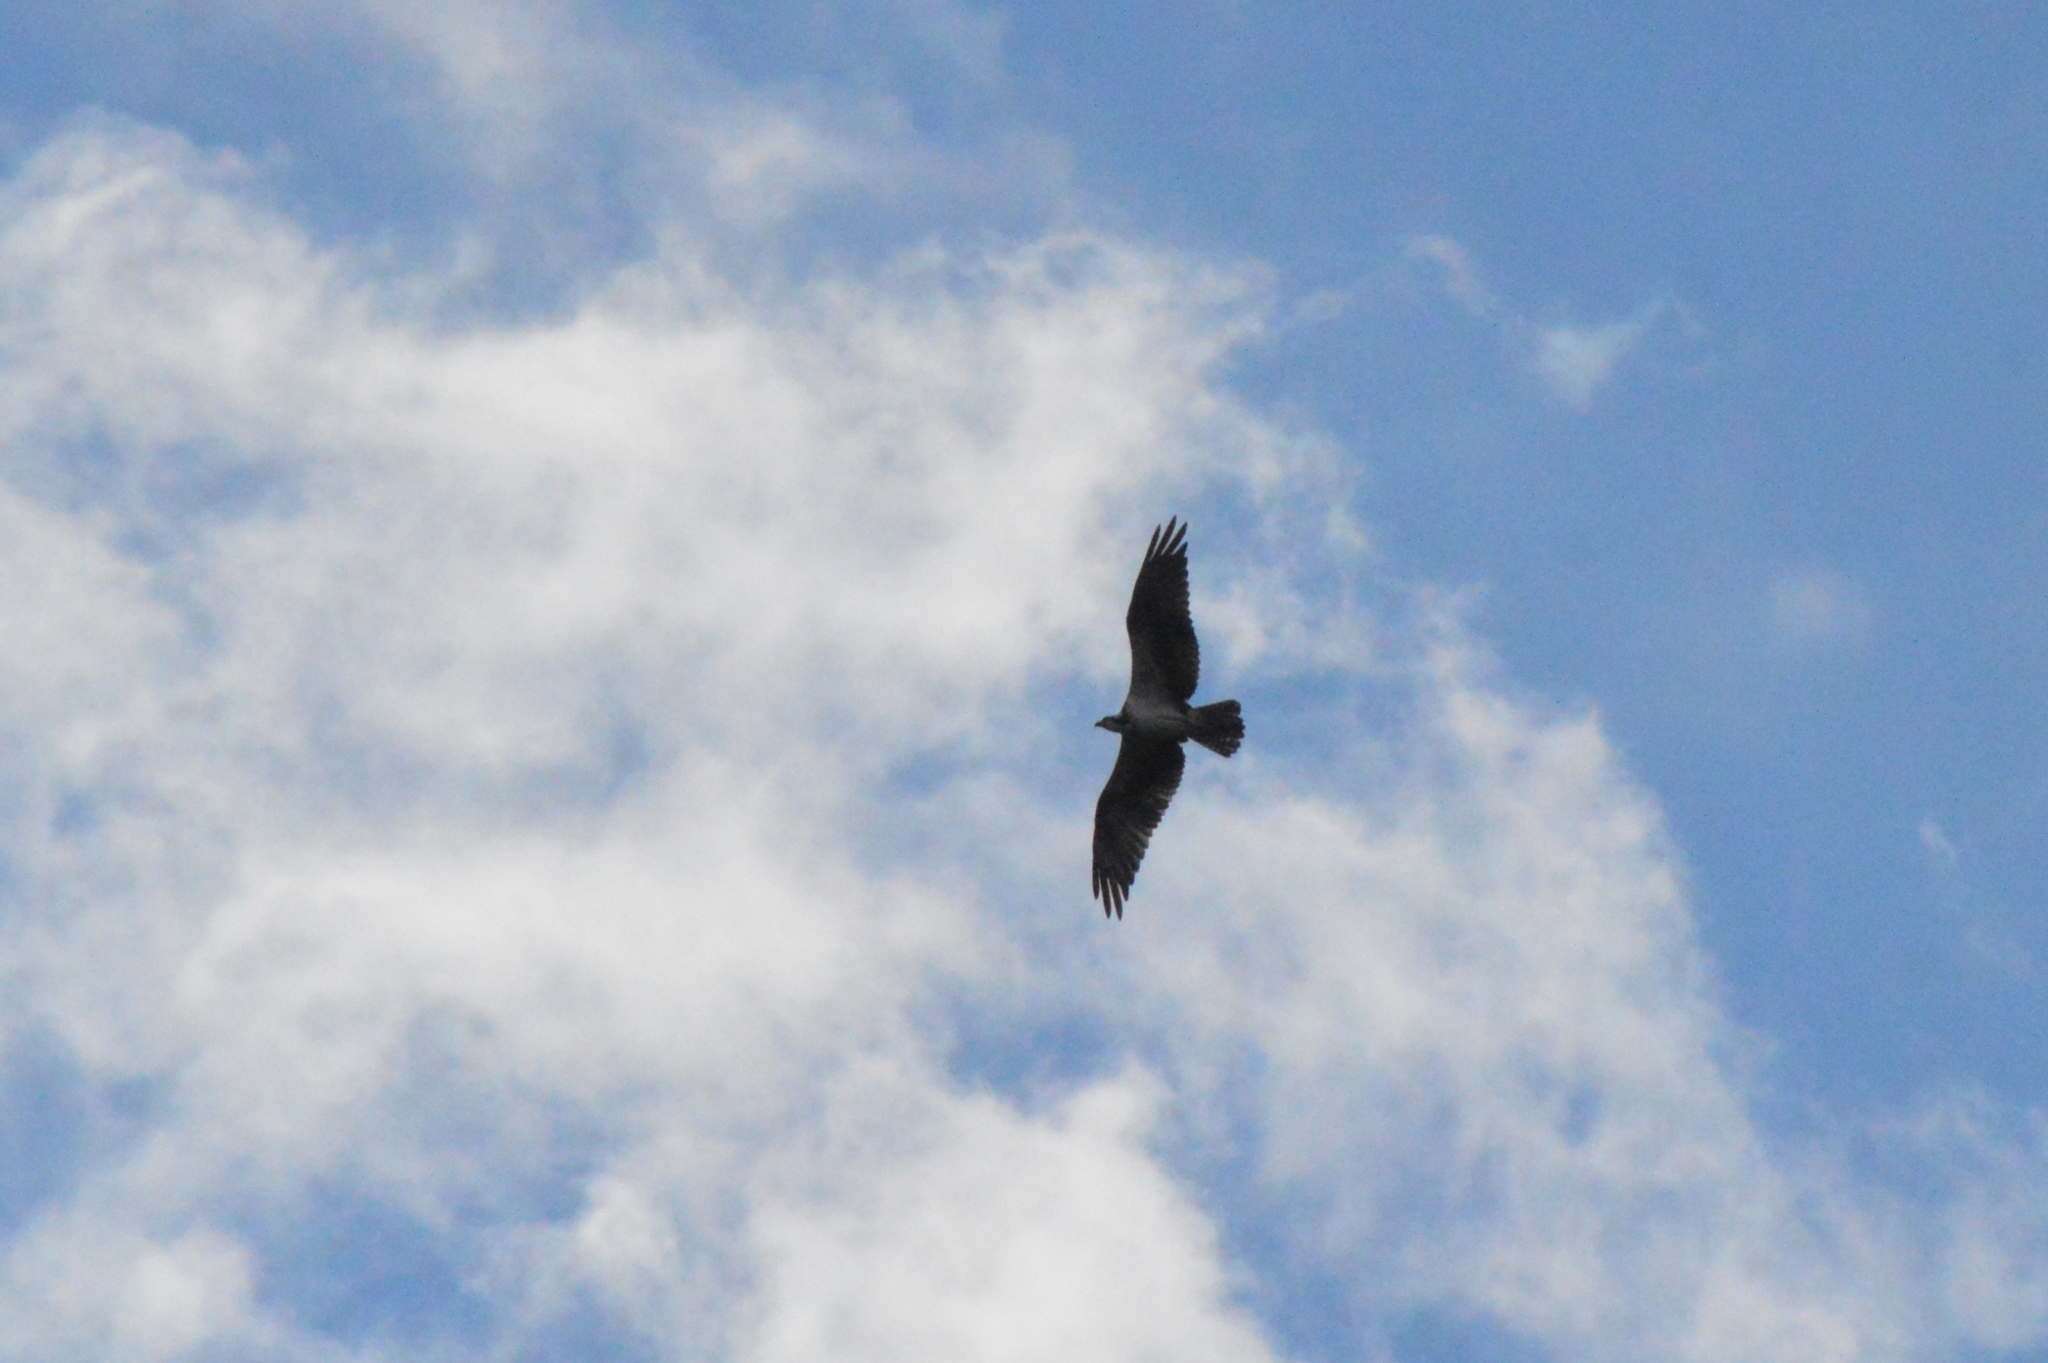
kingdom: Animalia
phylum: Chordata
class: Aves
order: Accipitriformes
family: Pandionidae
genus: Pandion
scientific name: Pandion haliaetus
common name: Osprey
